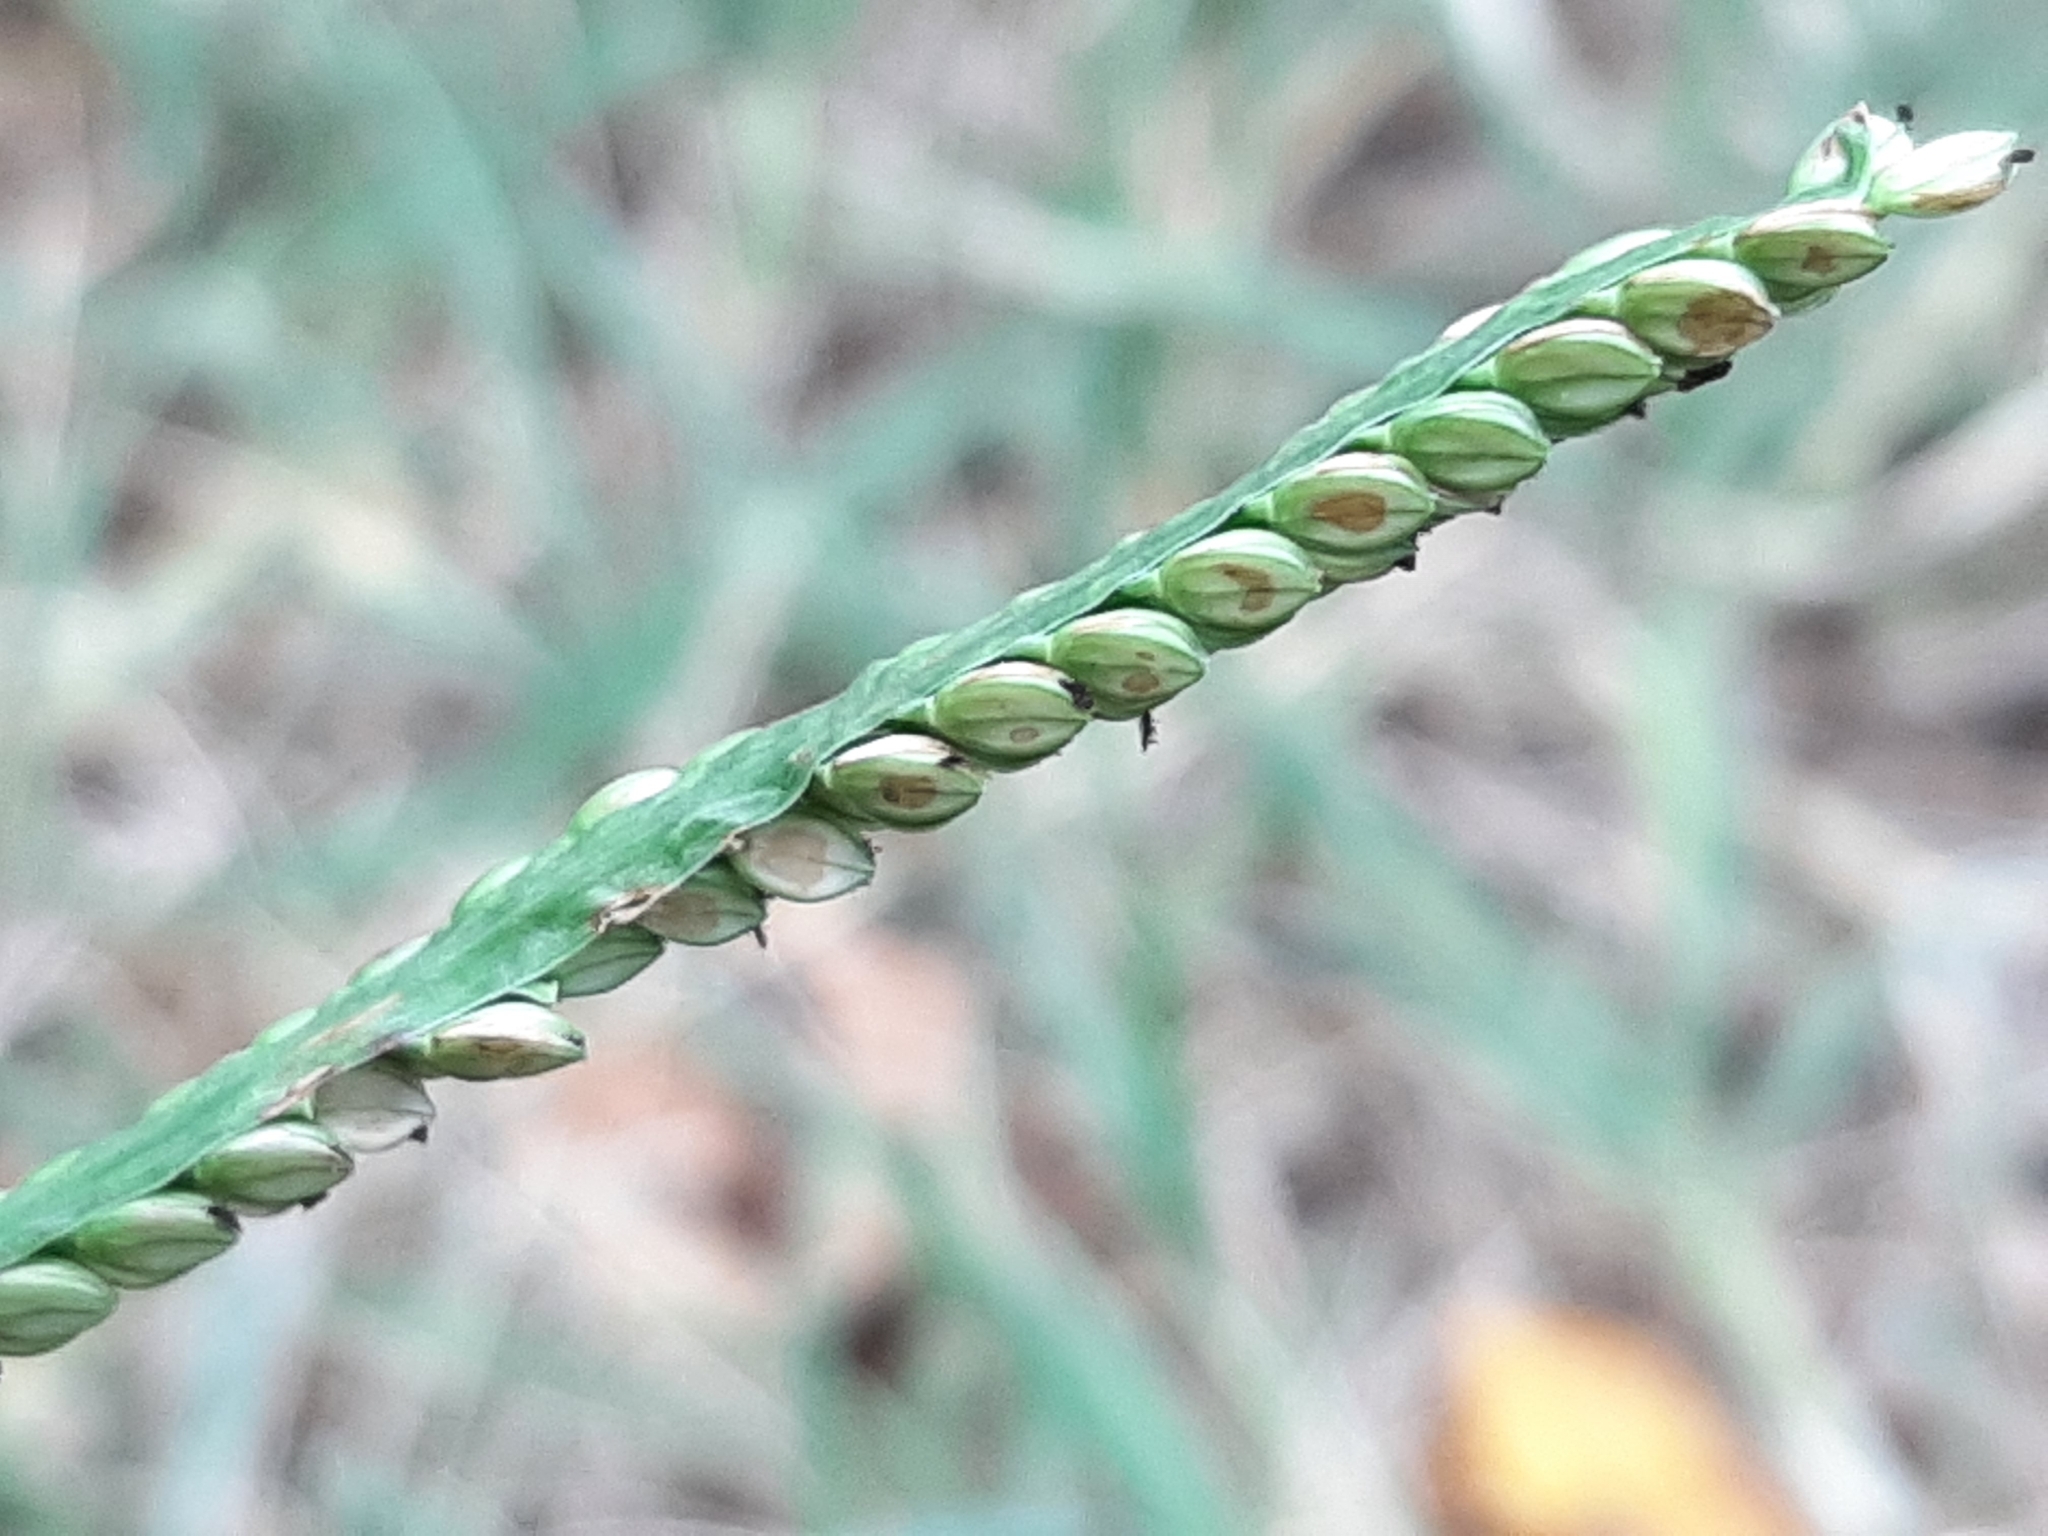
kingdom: Plantae
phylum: Tracheophyta
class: Liliopsida
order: Poales
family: Poaceae
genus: Paspalum
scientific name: Paspalum pubiflorum
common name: Hairy-seed paspalum
